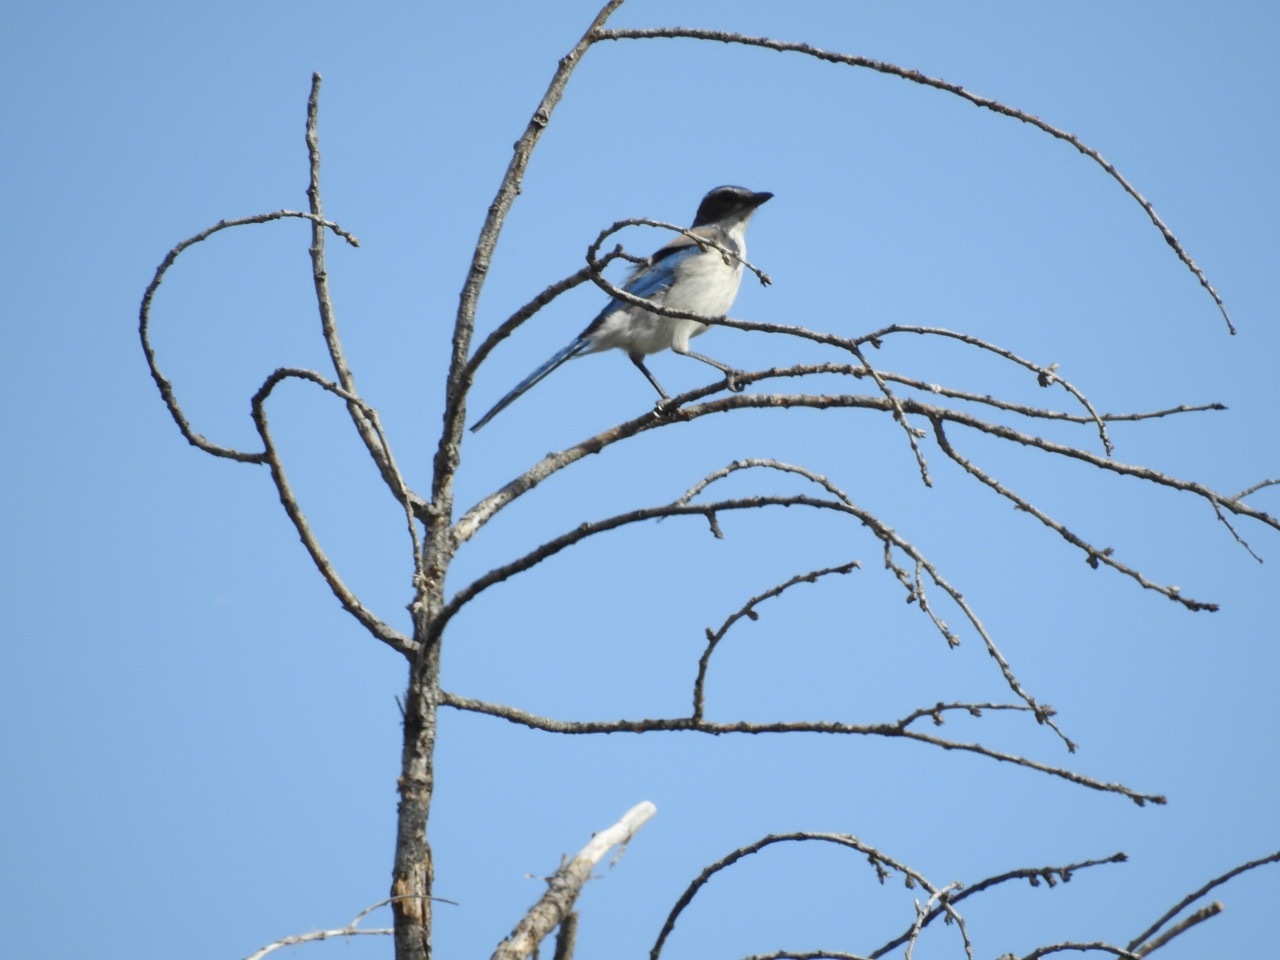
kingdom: Animalia
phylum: Chordata
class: Aves
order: Passeriformes
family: Corvidae
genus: Aphelocoma
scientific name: Aphelocoma californica
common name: California scrub-jay
